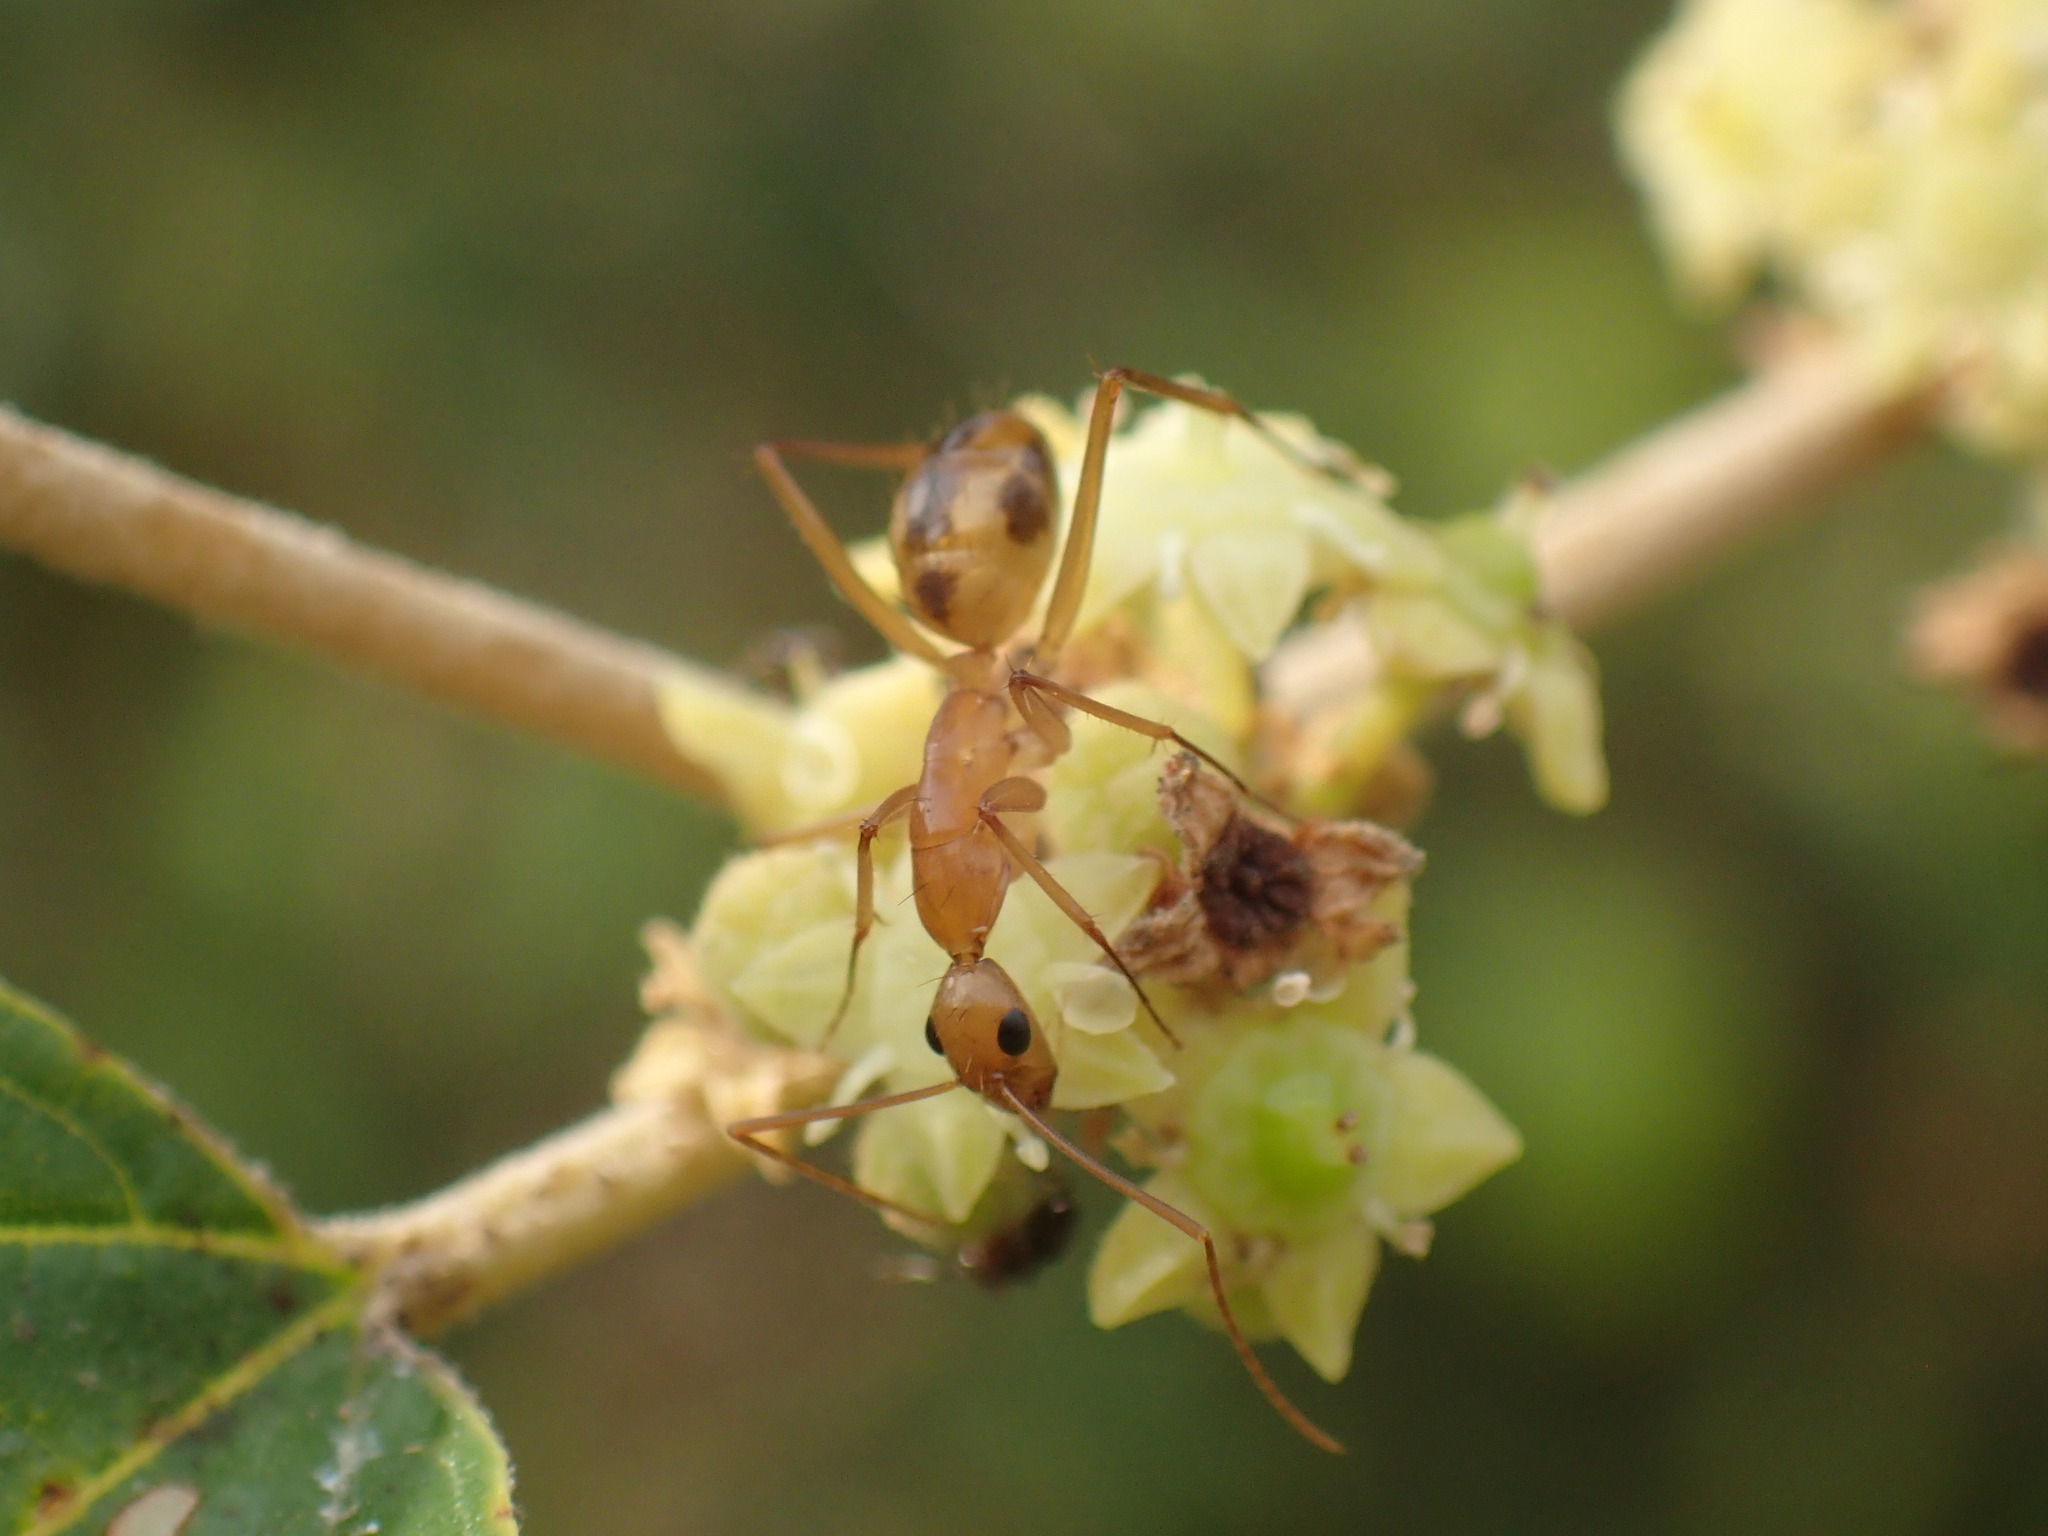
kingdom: Animalia
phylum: Arthropoda
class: Insecta
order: Hymenoptera
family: Formicidae
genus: Camponotus
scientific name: Camponotus maculatus
